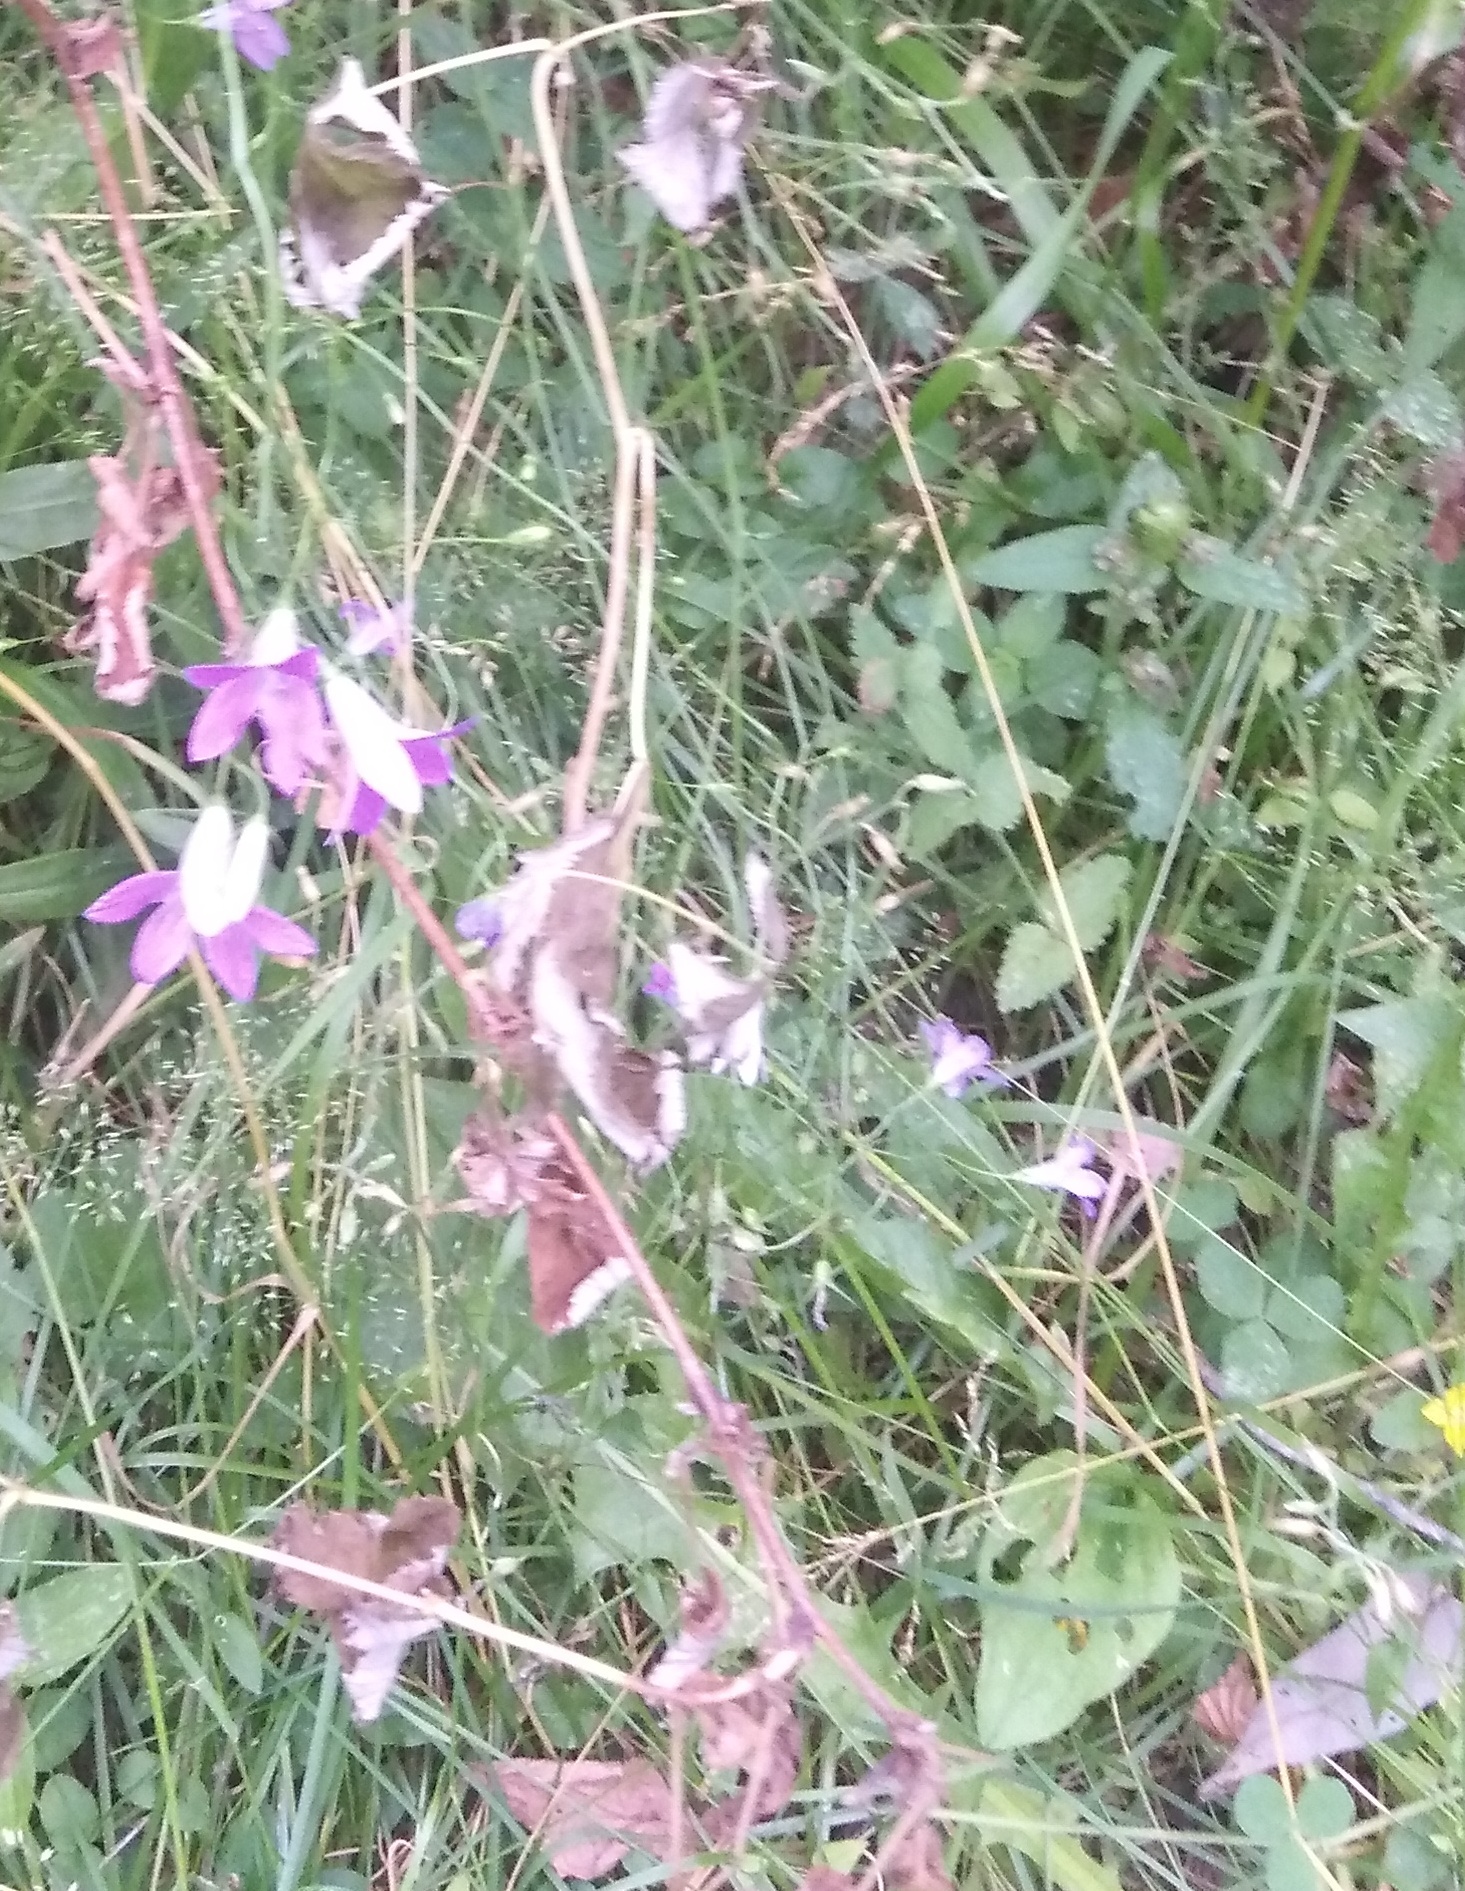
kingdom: Plantae
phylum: Tracheophyta
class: Magnoliopsida
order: Asterales
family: Campanulaceae
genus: Campanula
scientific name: Campanula patula
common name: Spreading bellflower
